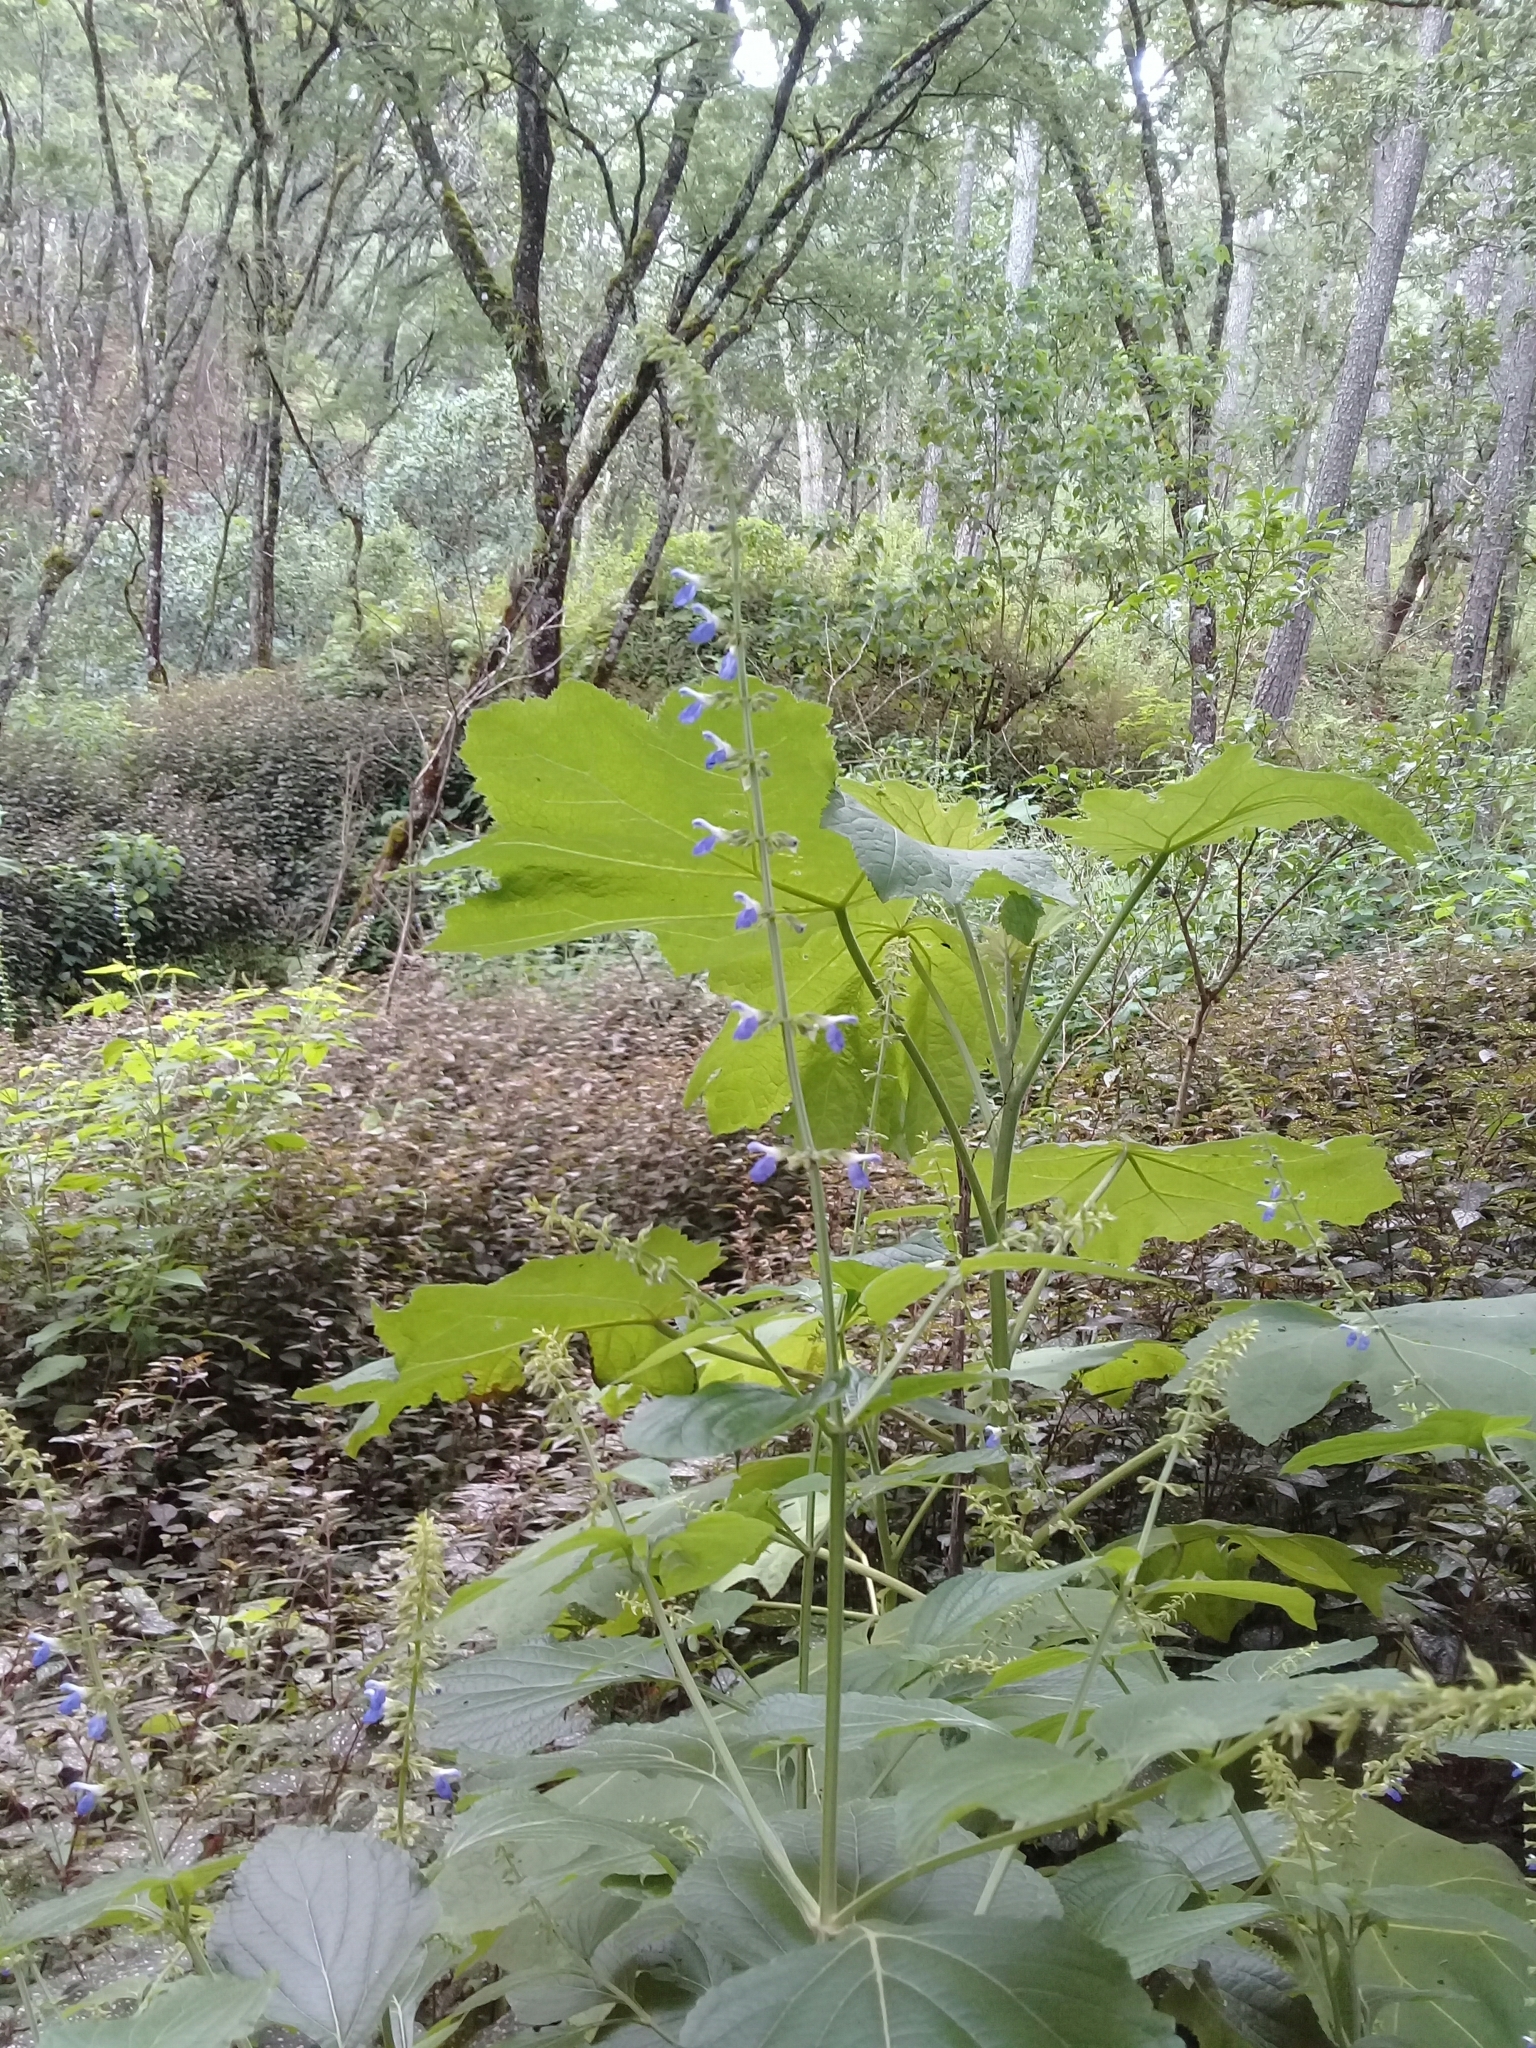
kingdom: Plantae
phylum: Tracheophyta
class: Magnoliopsida
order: Lamiales
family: Lamiaceae
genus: Salvia
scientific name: Salvia longispicata
